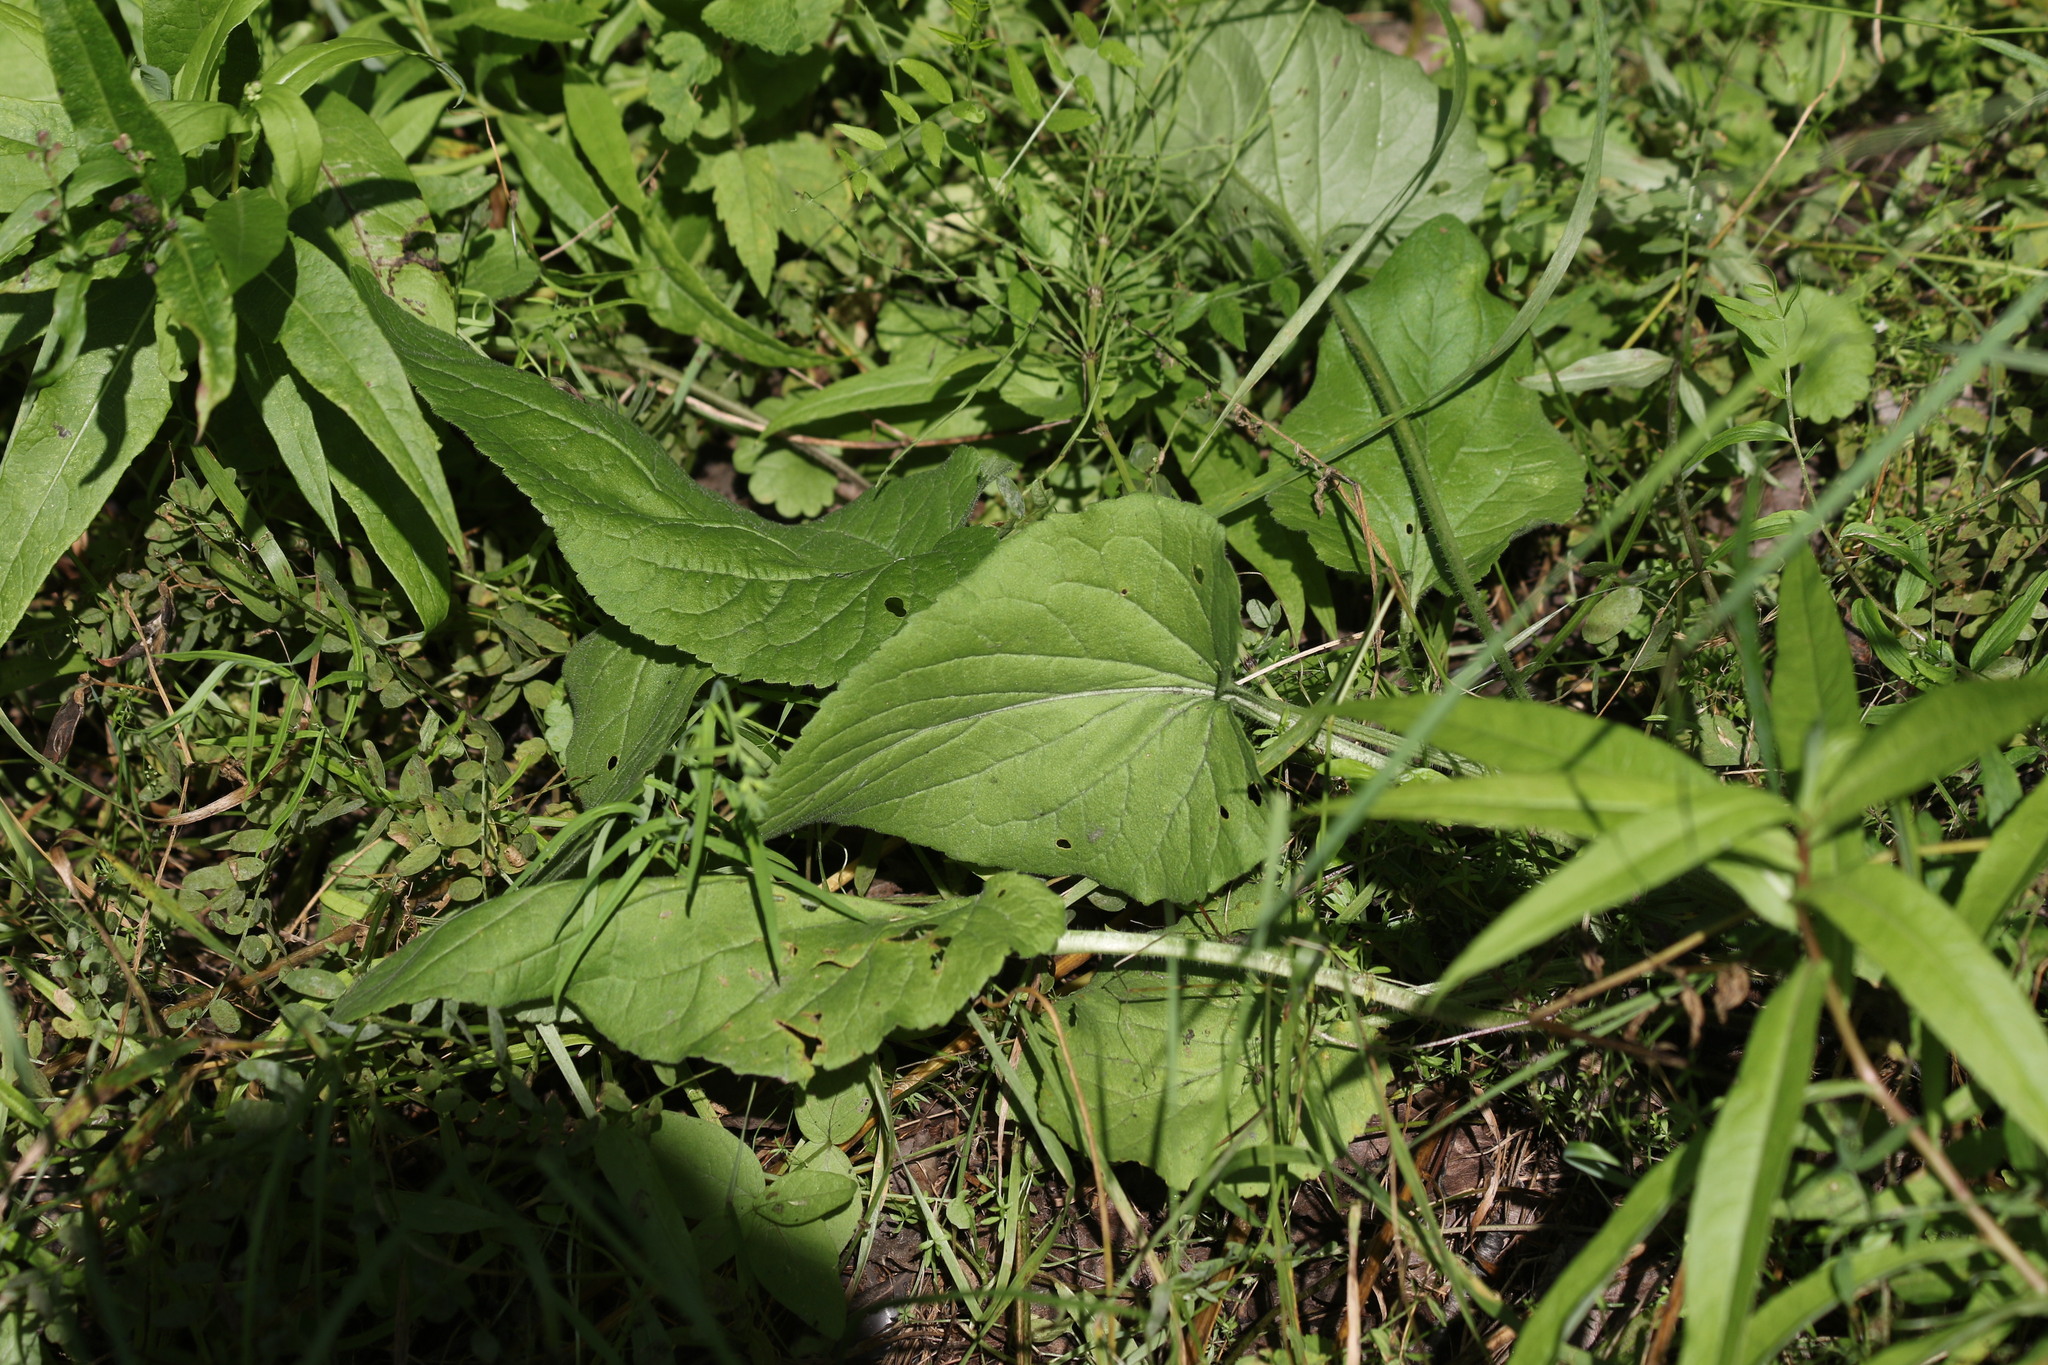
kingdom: Plantae
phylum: Tracheophyta
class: Magnoliopsida
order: Asterales
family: Campanulaceae
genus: Campanula
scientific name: Campanula rapunculoides
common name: Creeping bellflower
